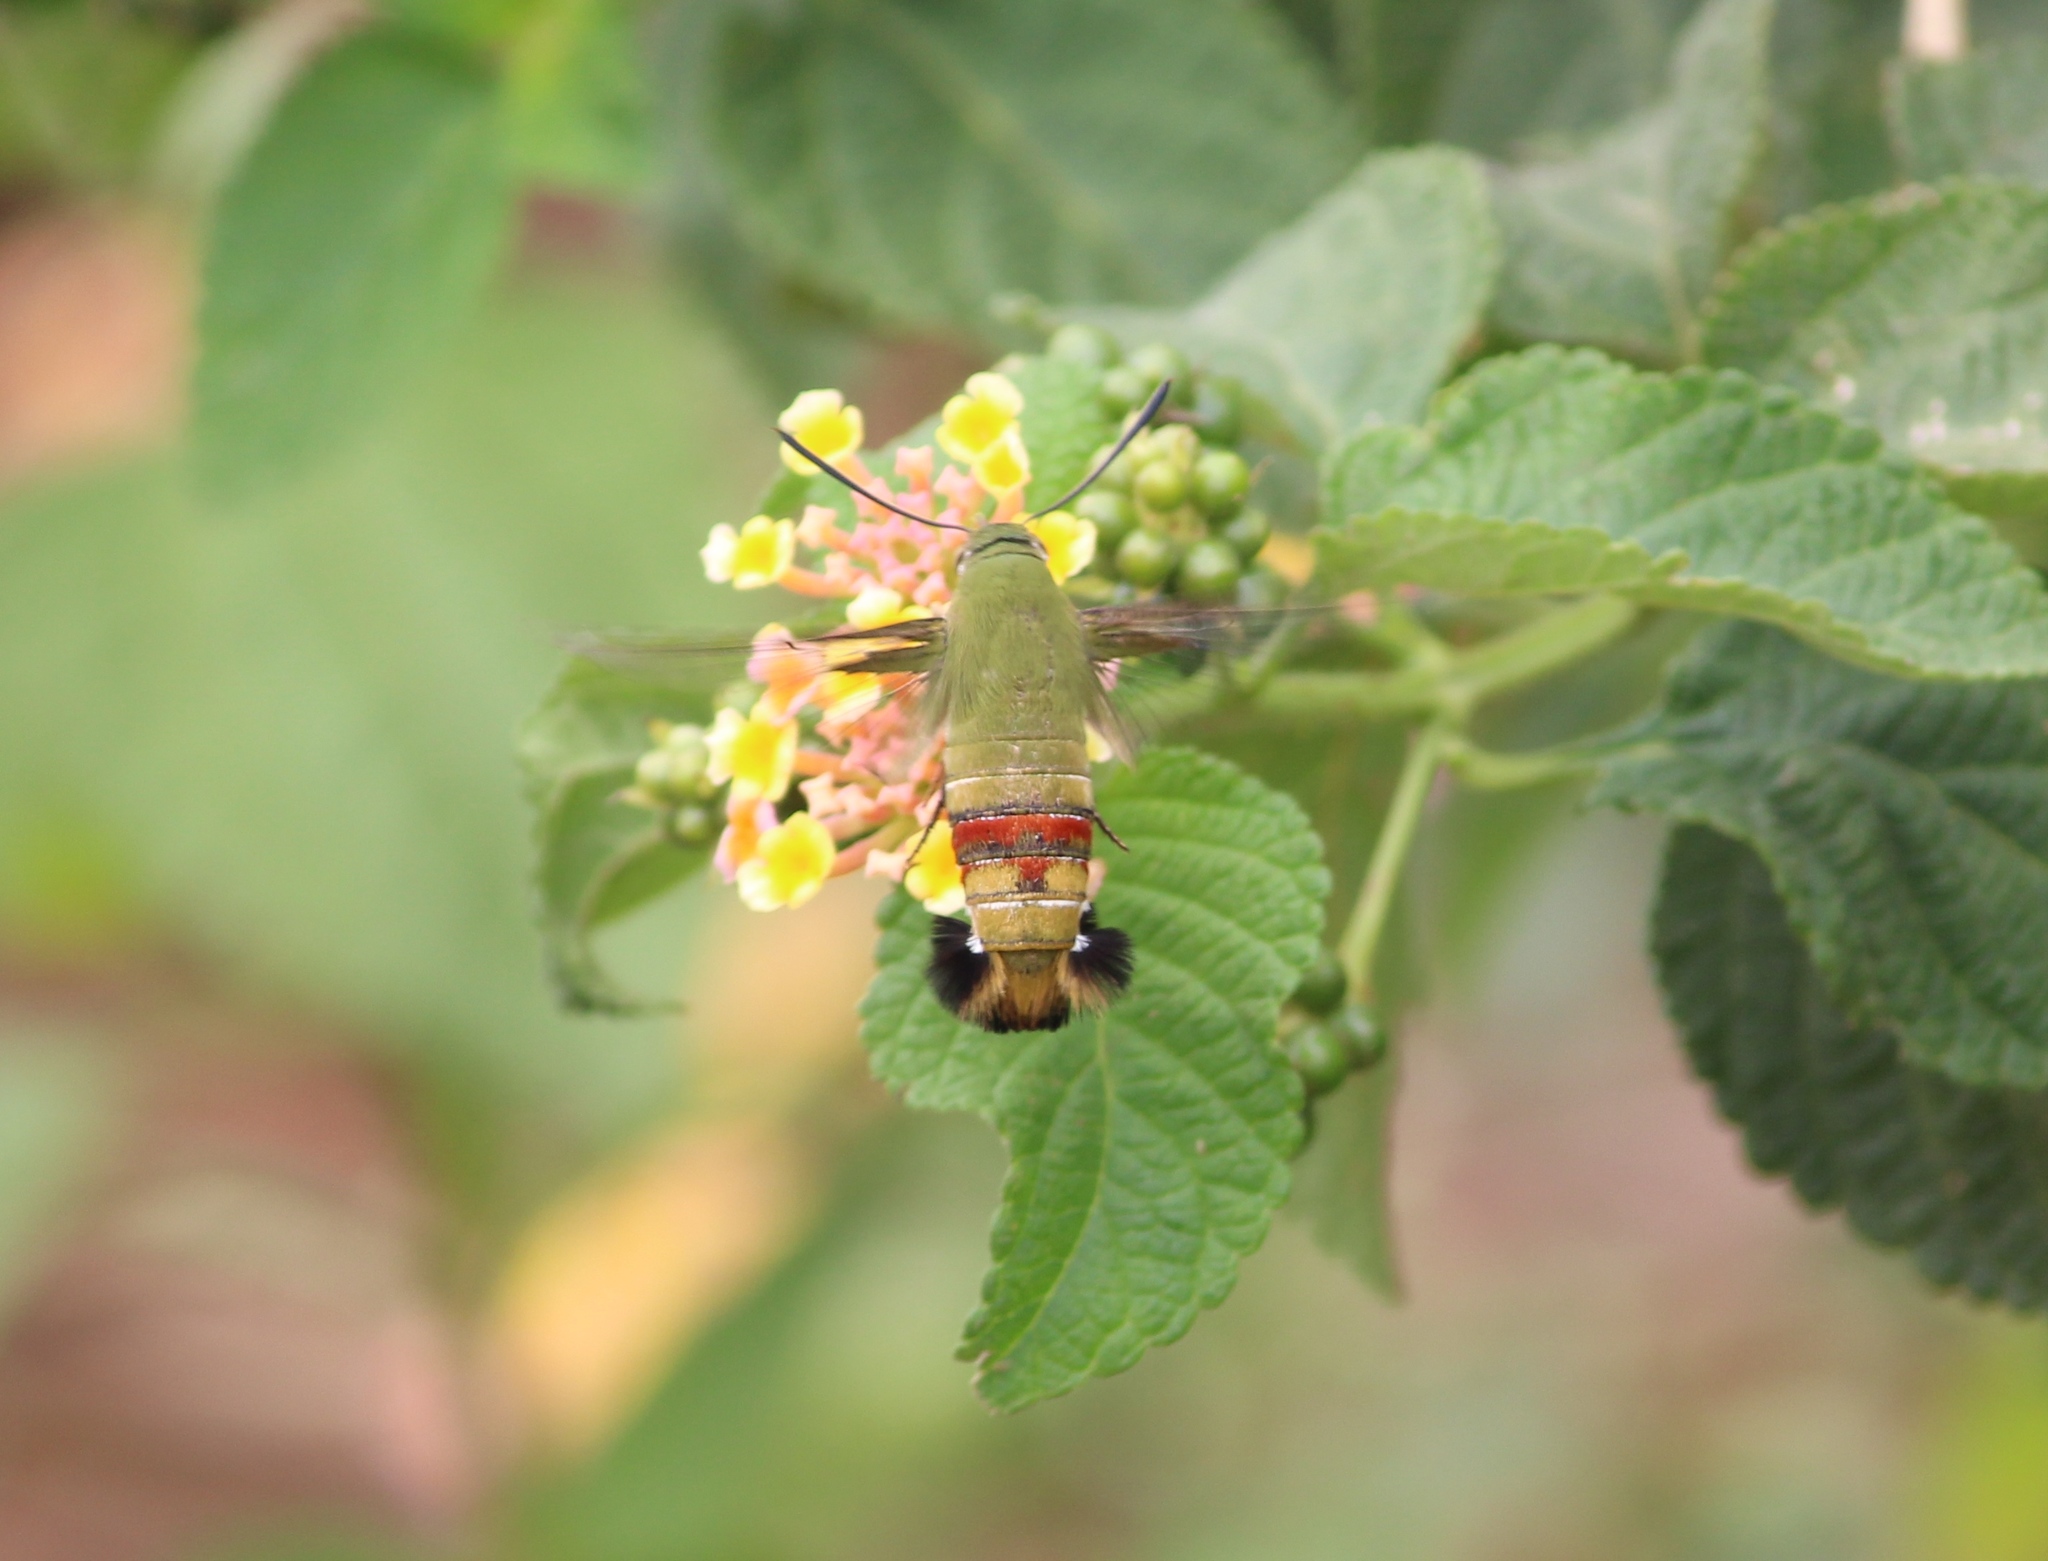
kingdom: Animalia
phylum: Arthropoda
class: Insecta
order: Lepidoptera
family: Sphingidae
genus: Cephonodes
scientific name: Cephonodes hylas
